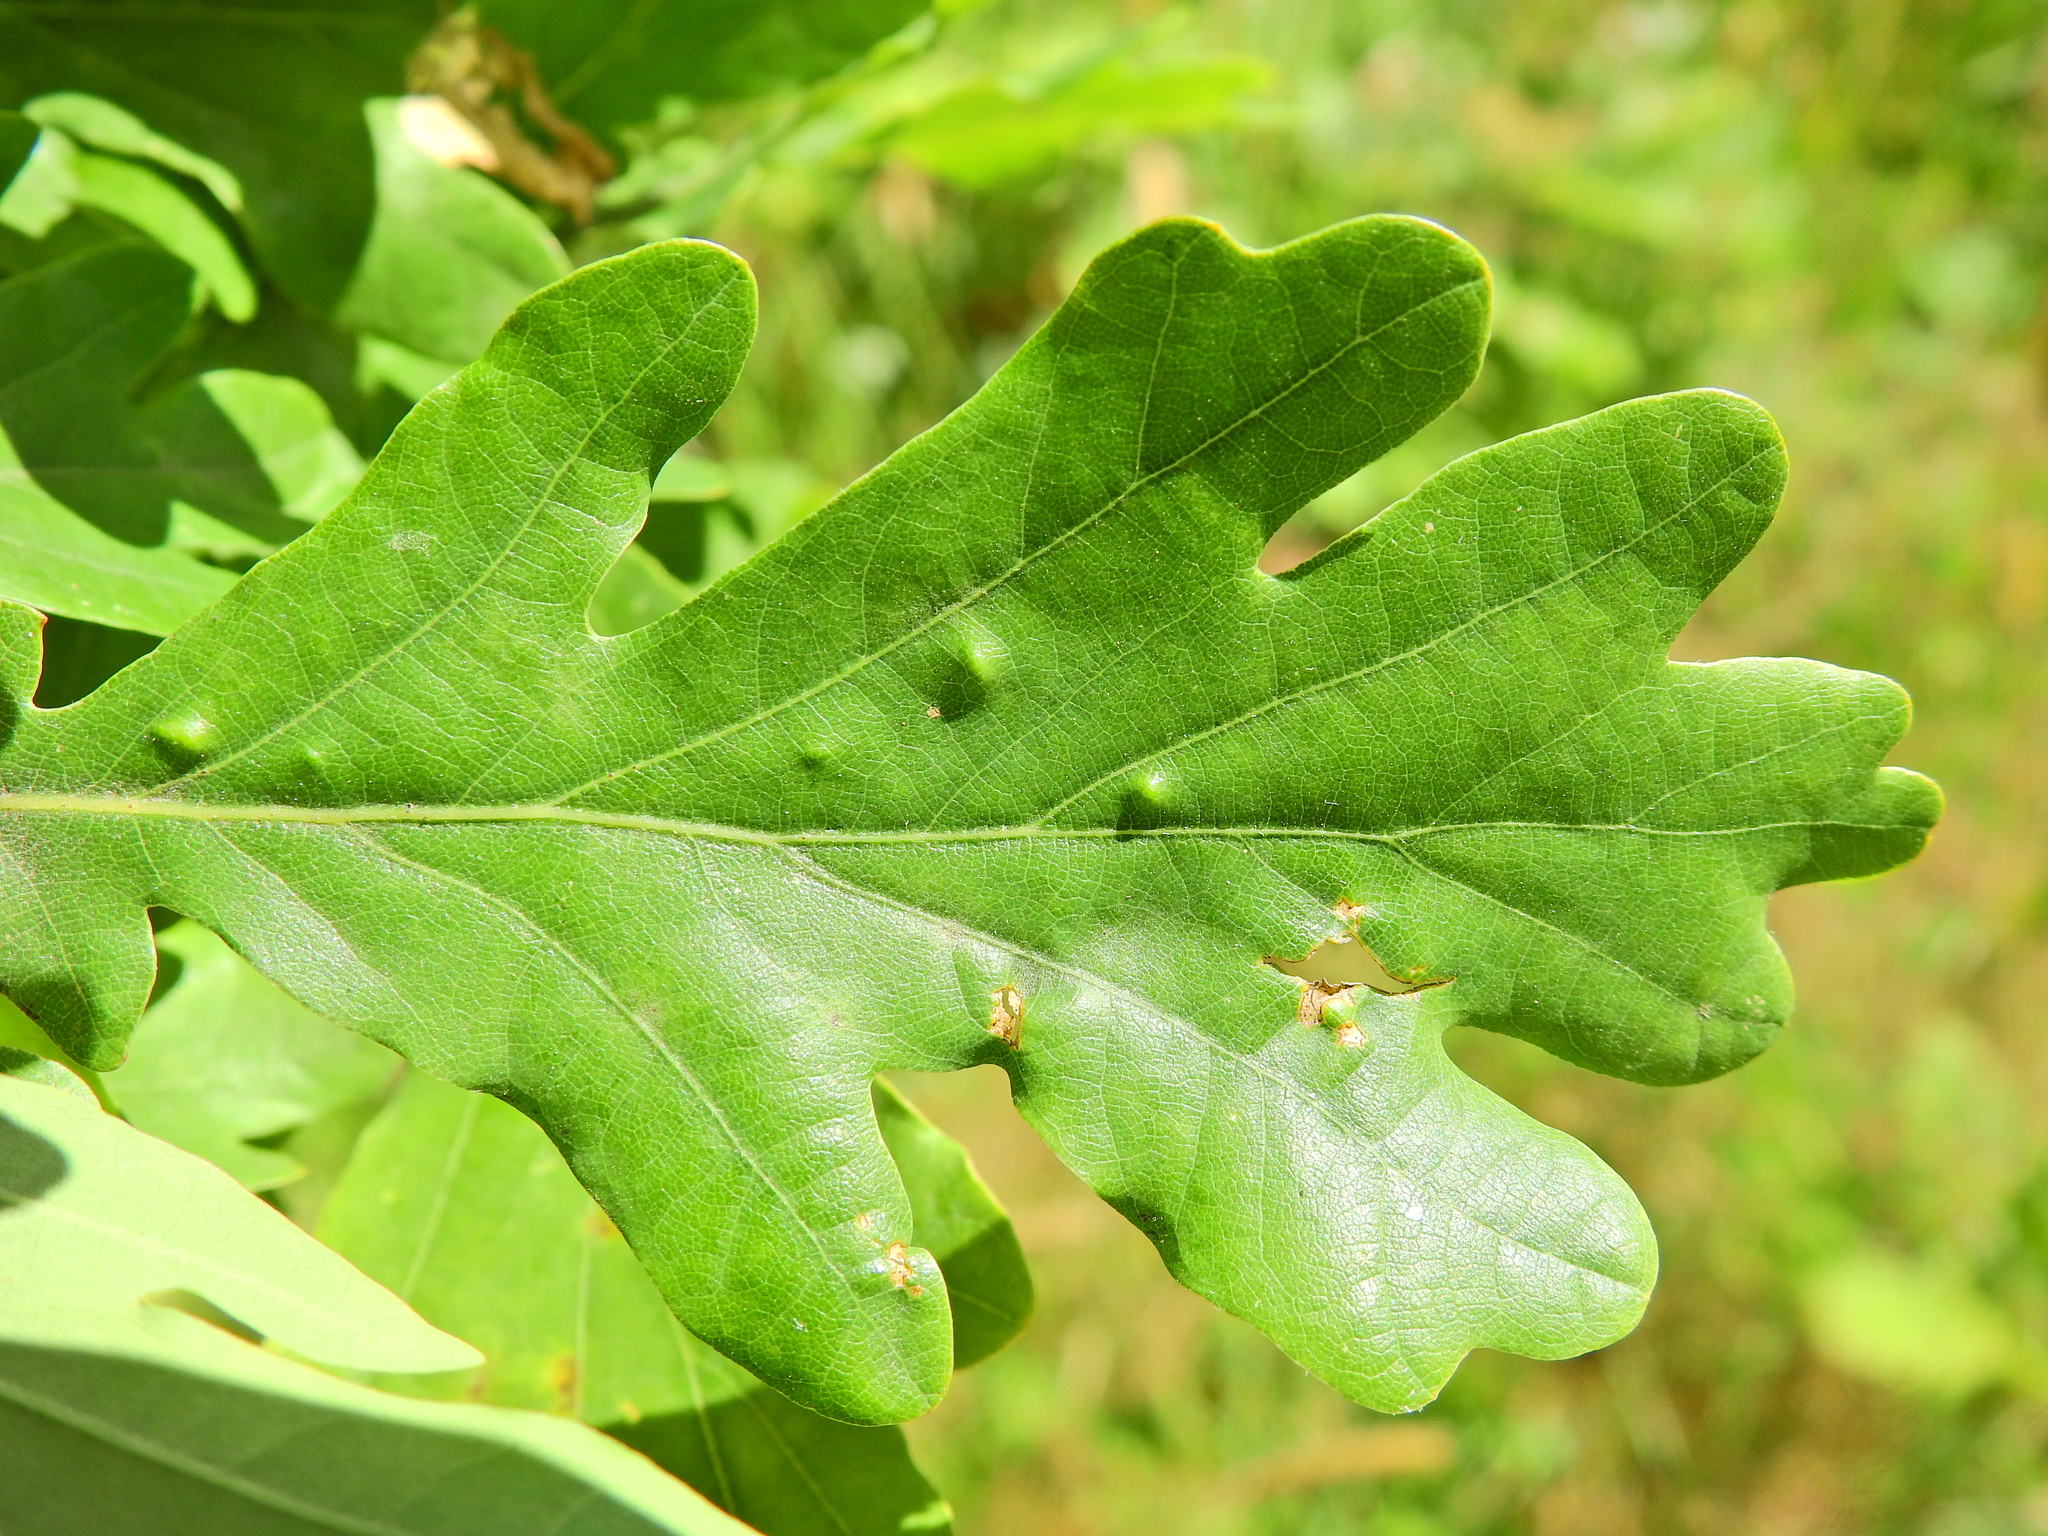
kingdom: Animalia
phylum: Arthropoda
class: Insecta
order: Hemiptera
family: Triozidae
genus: Trioza
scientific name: Trioza remota
